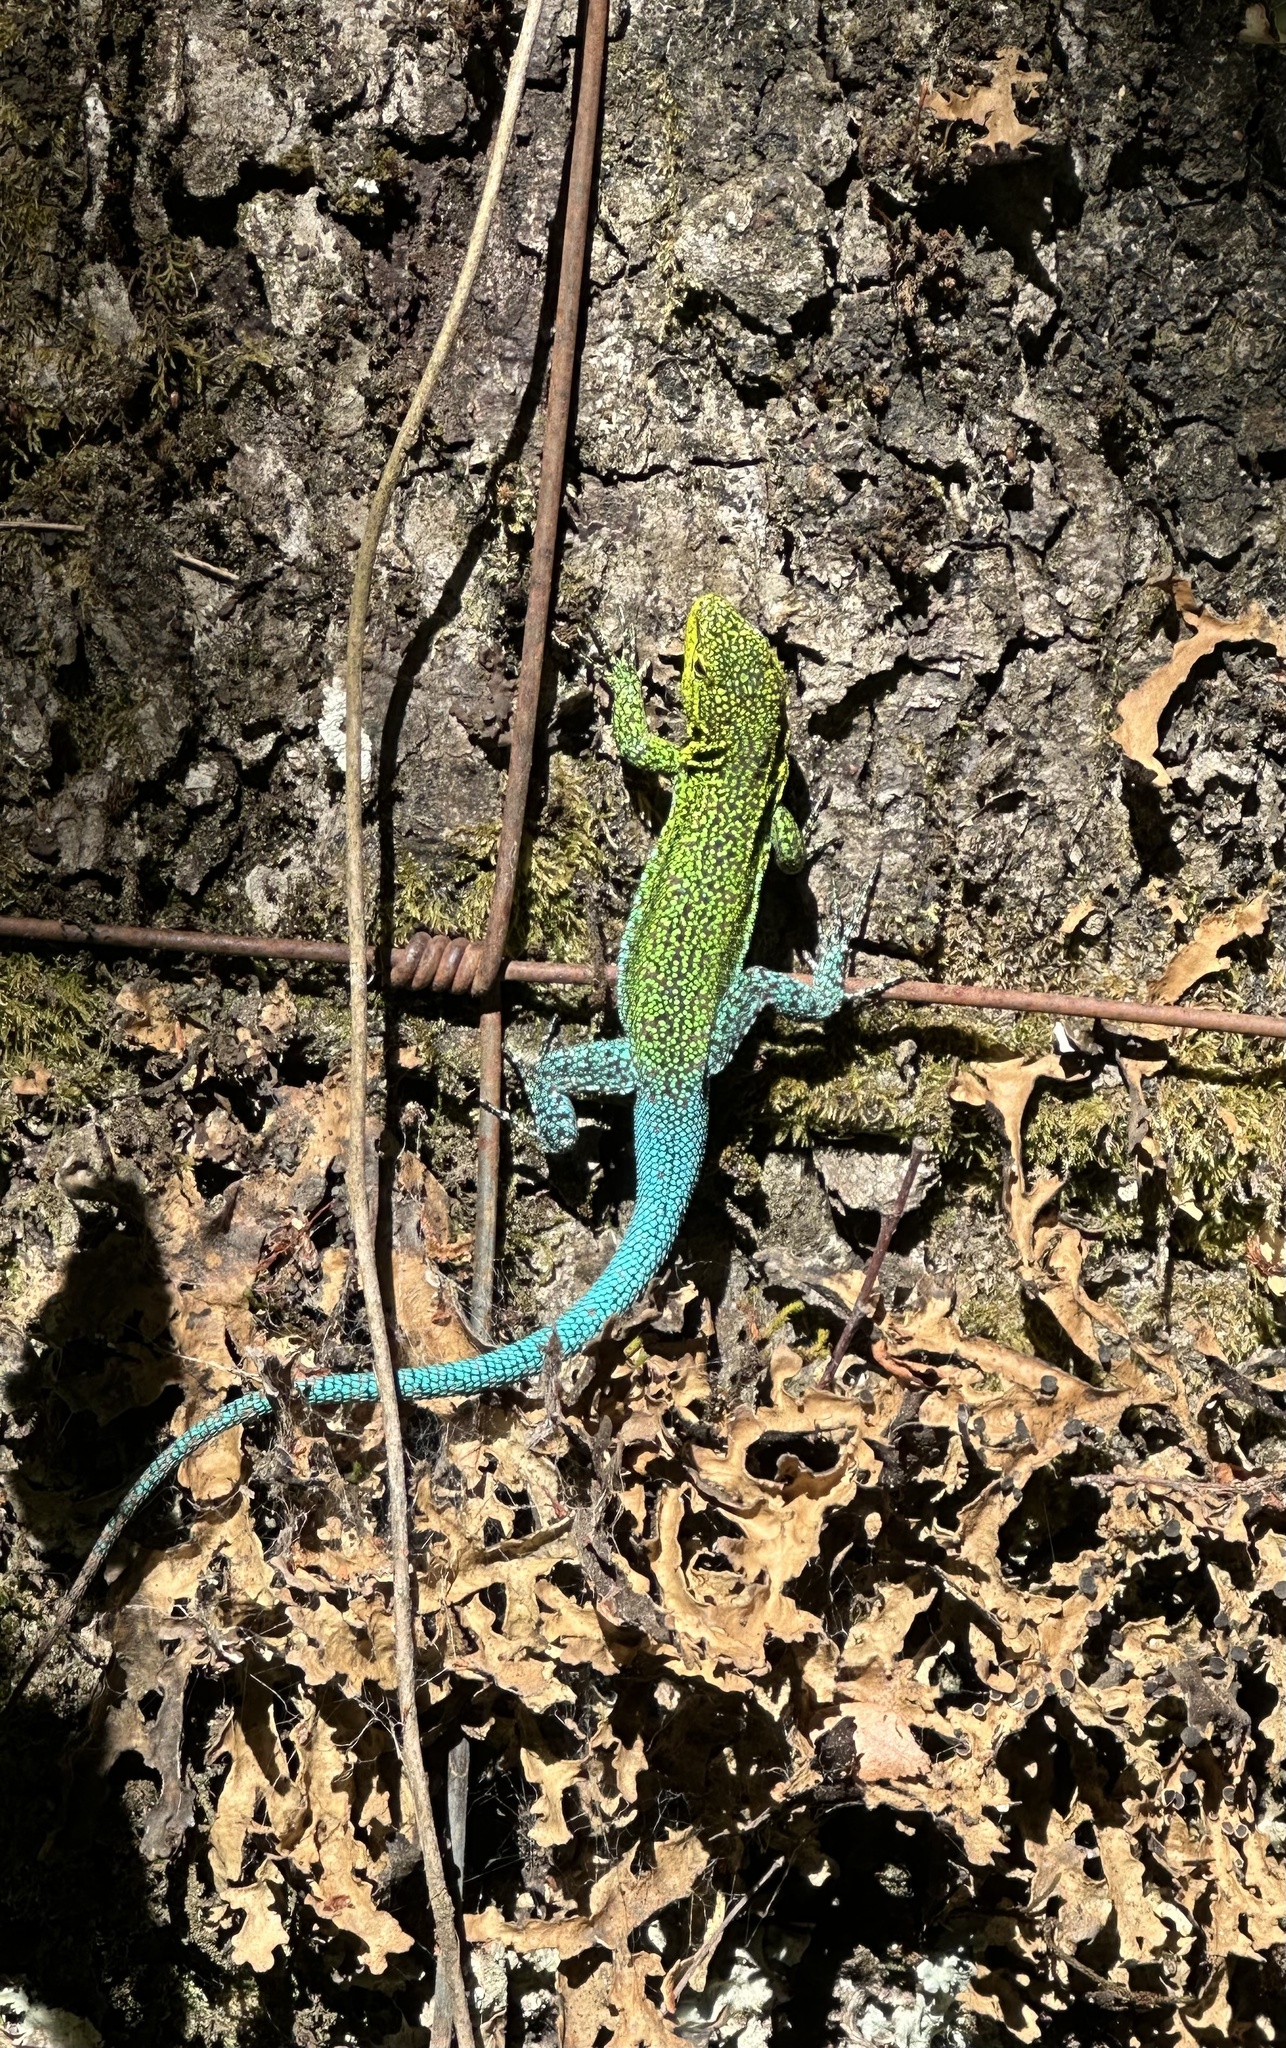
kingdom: Animalia
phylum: Chordata
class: Squamata
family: Liolaemidae
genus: Liolaemus
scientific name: Liolaemus tenuis
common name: Thin tree iguana
